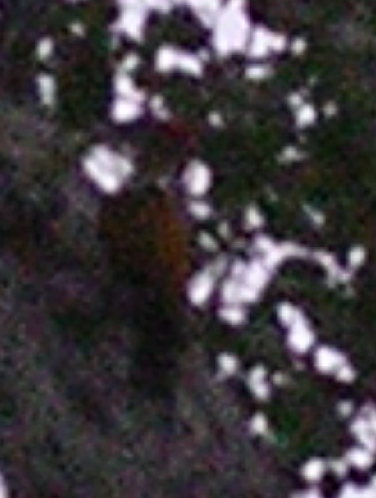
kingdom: Animalia
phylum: Chordata
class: Aves
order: Piciformes
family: Picidae
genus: Dinopium
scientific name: Dinopium javanense
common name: Common flameback
